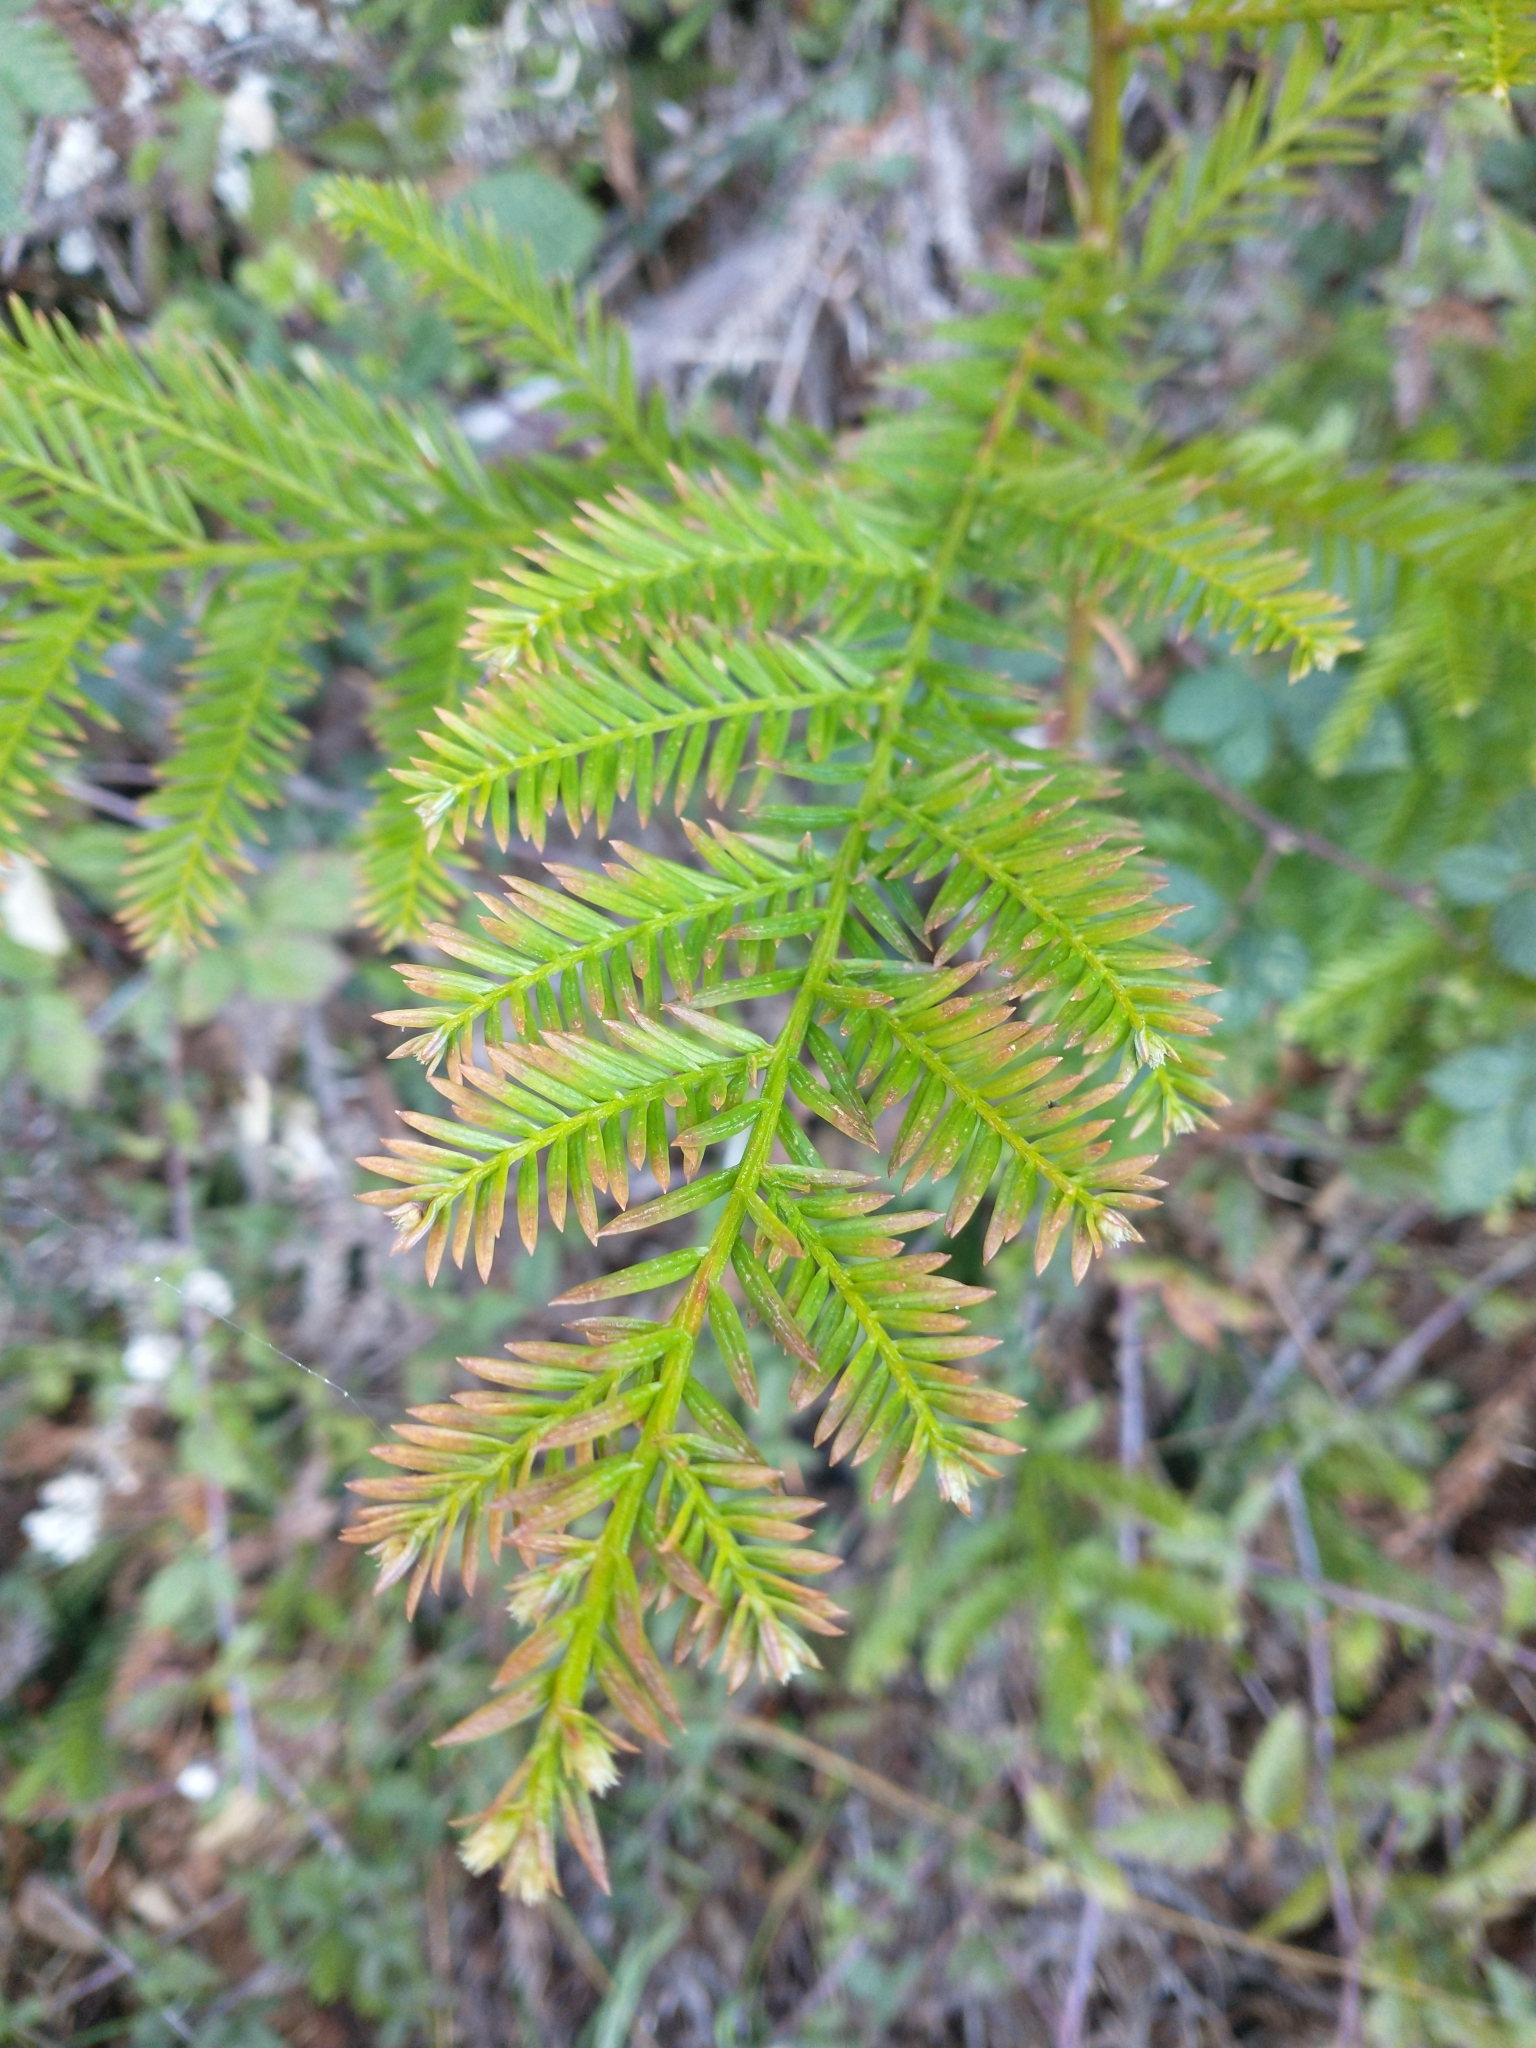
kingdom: Plantae
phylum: Tracheophyta
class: Pinopsida
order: Pinales
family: Cupressaceae
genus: Sequoia
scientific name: Sequoia sempervirens
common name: Coast redwood
